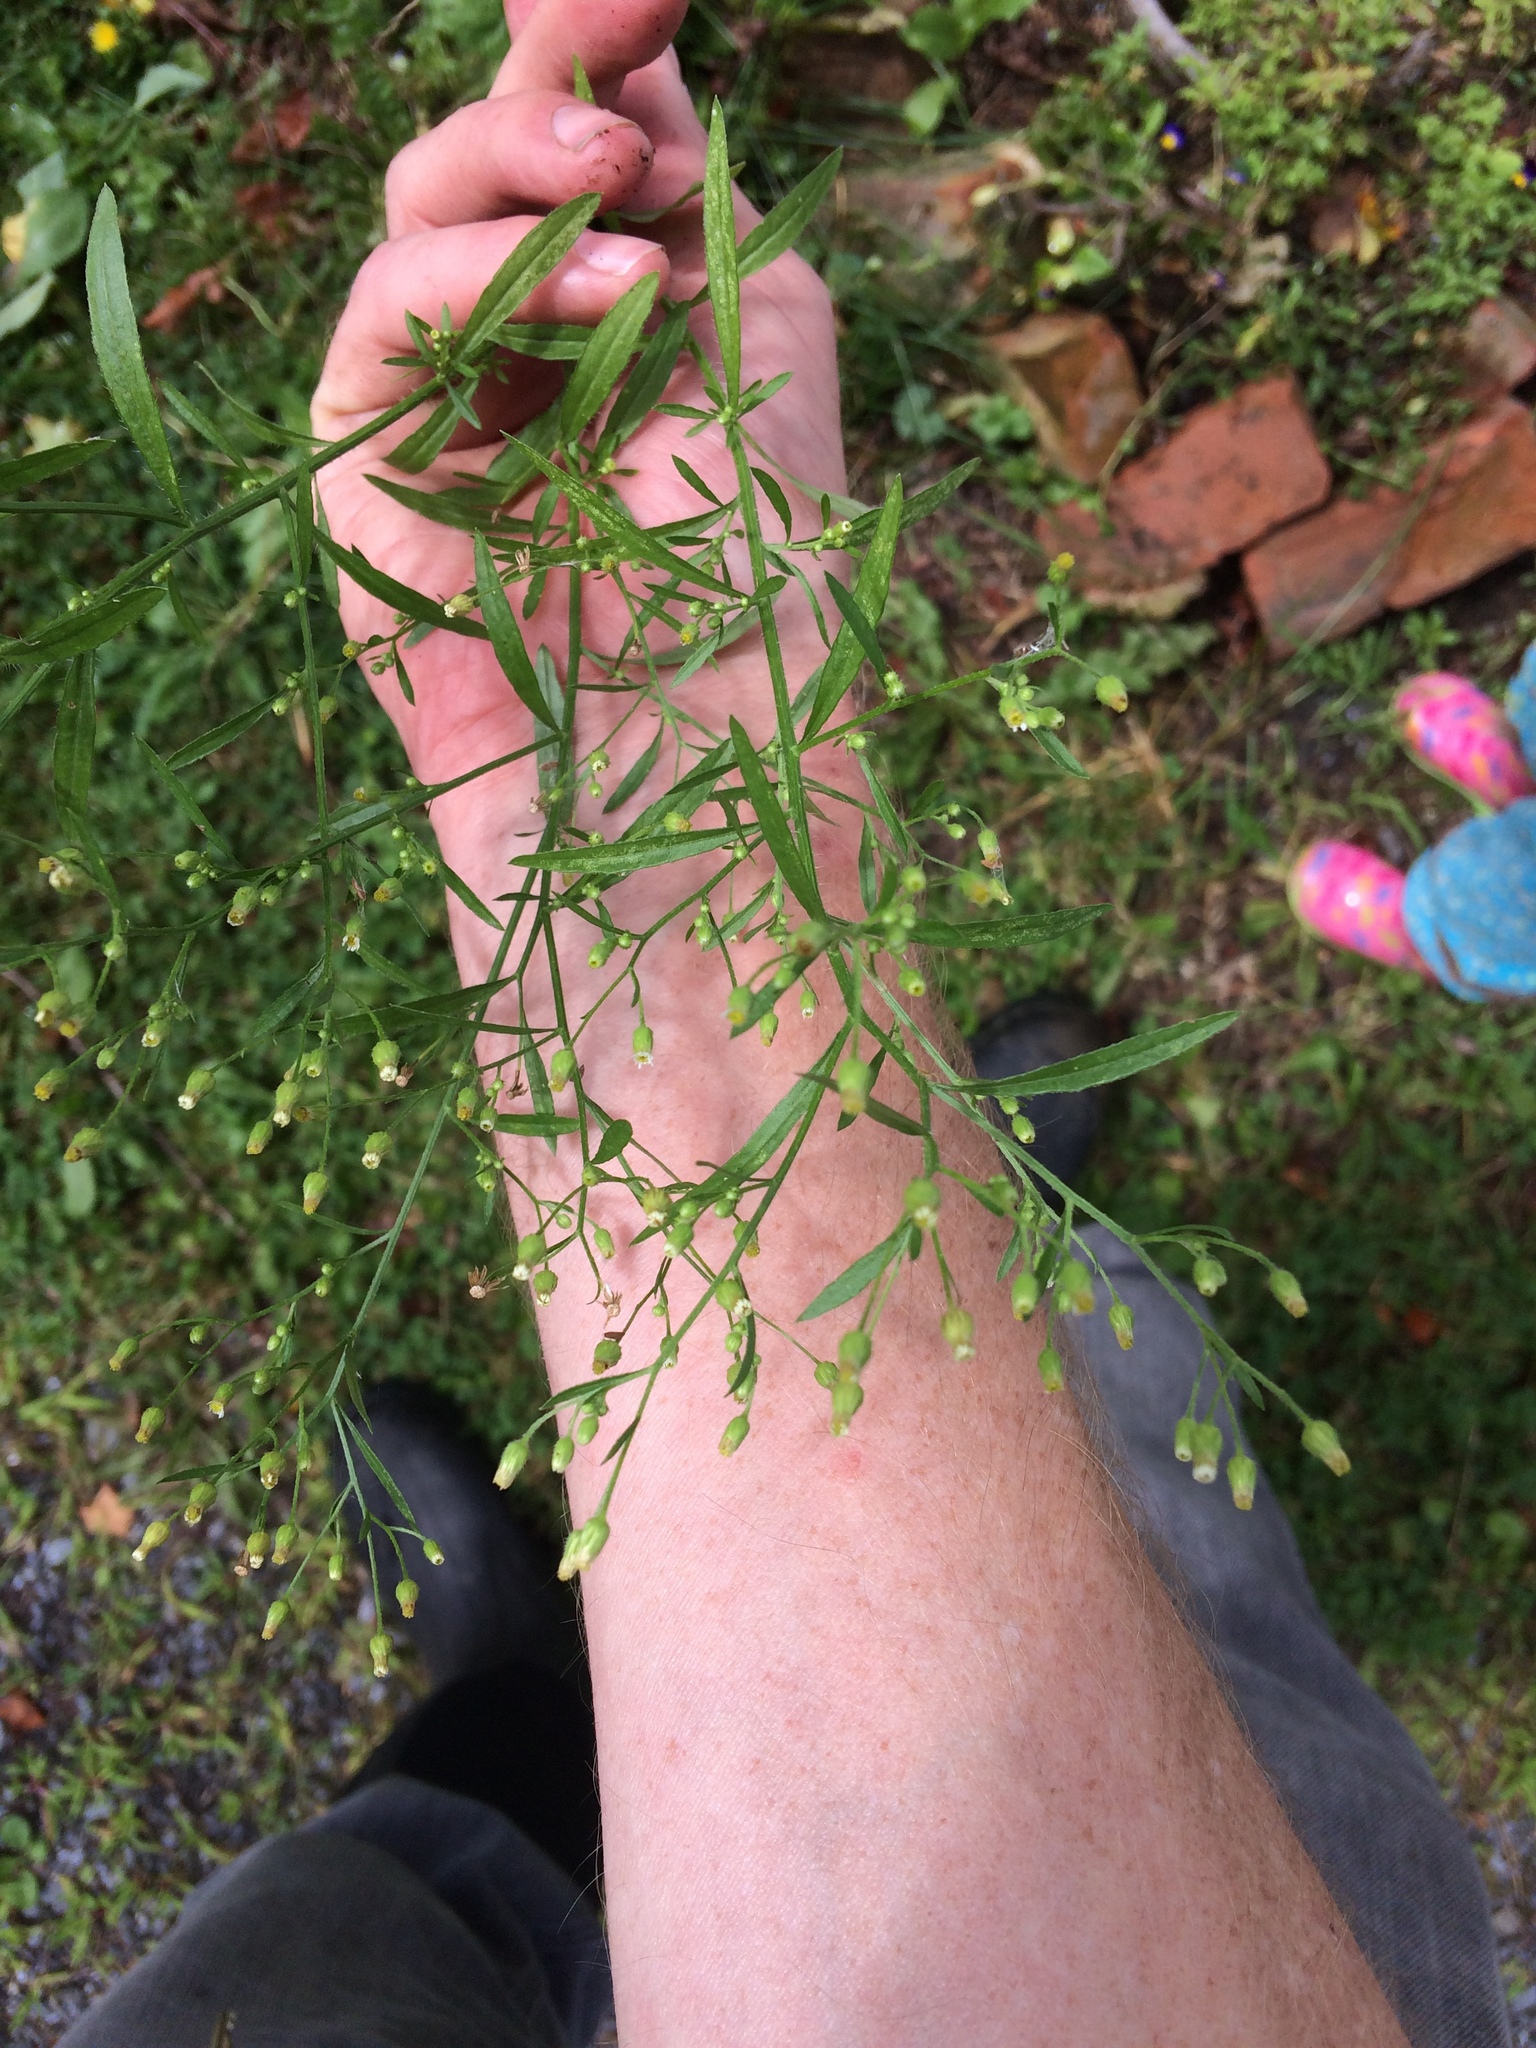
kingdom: Plantae
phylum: Tracheophyta
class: Magnoliopsida
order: Asterales
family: Asteraceae
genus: Erigeron
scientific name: Erigeron canadensis
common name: Canadian fleabane
